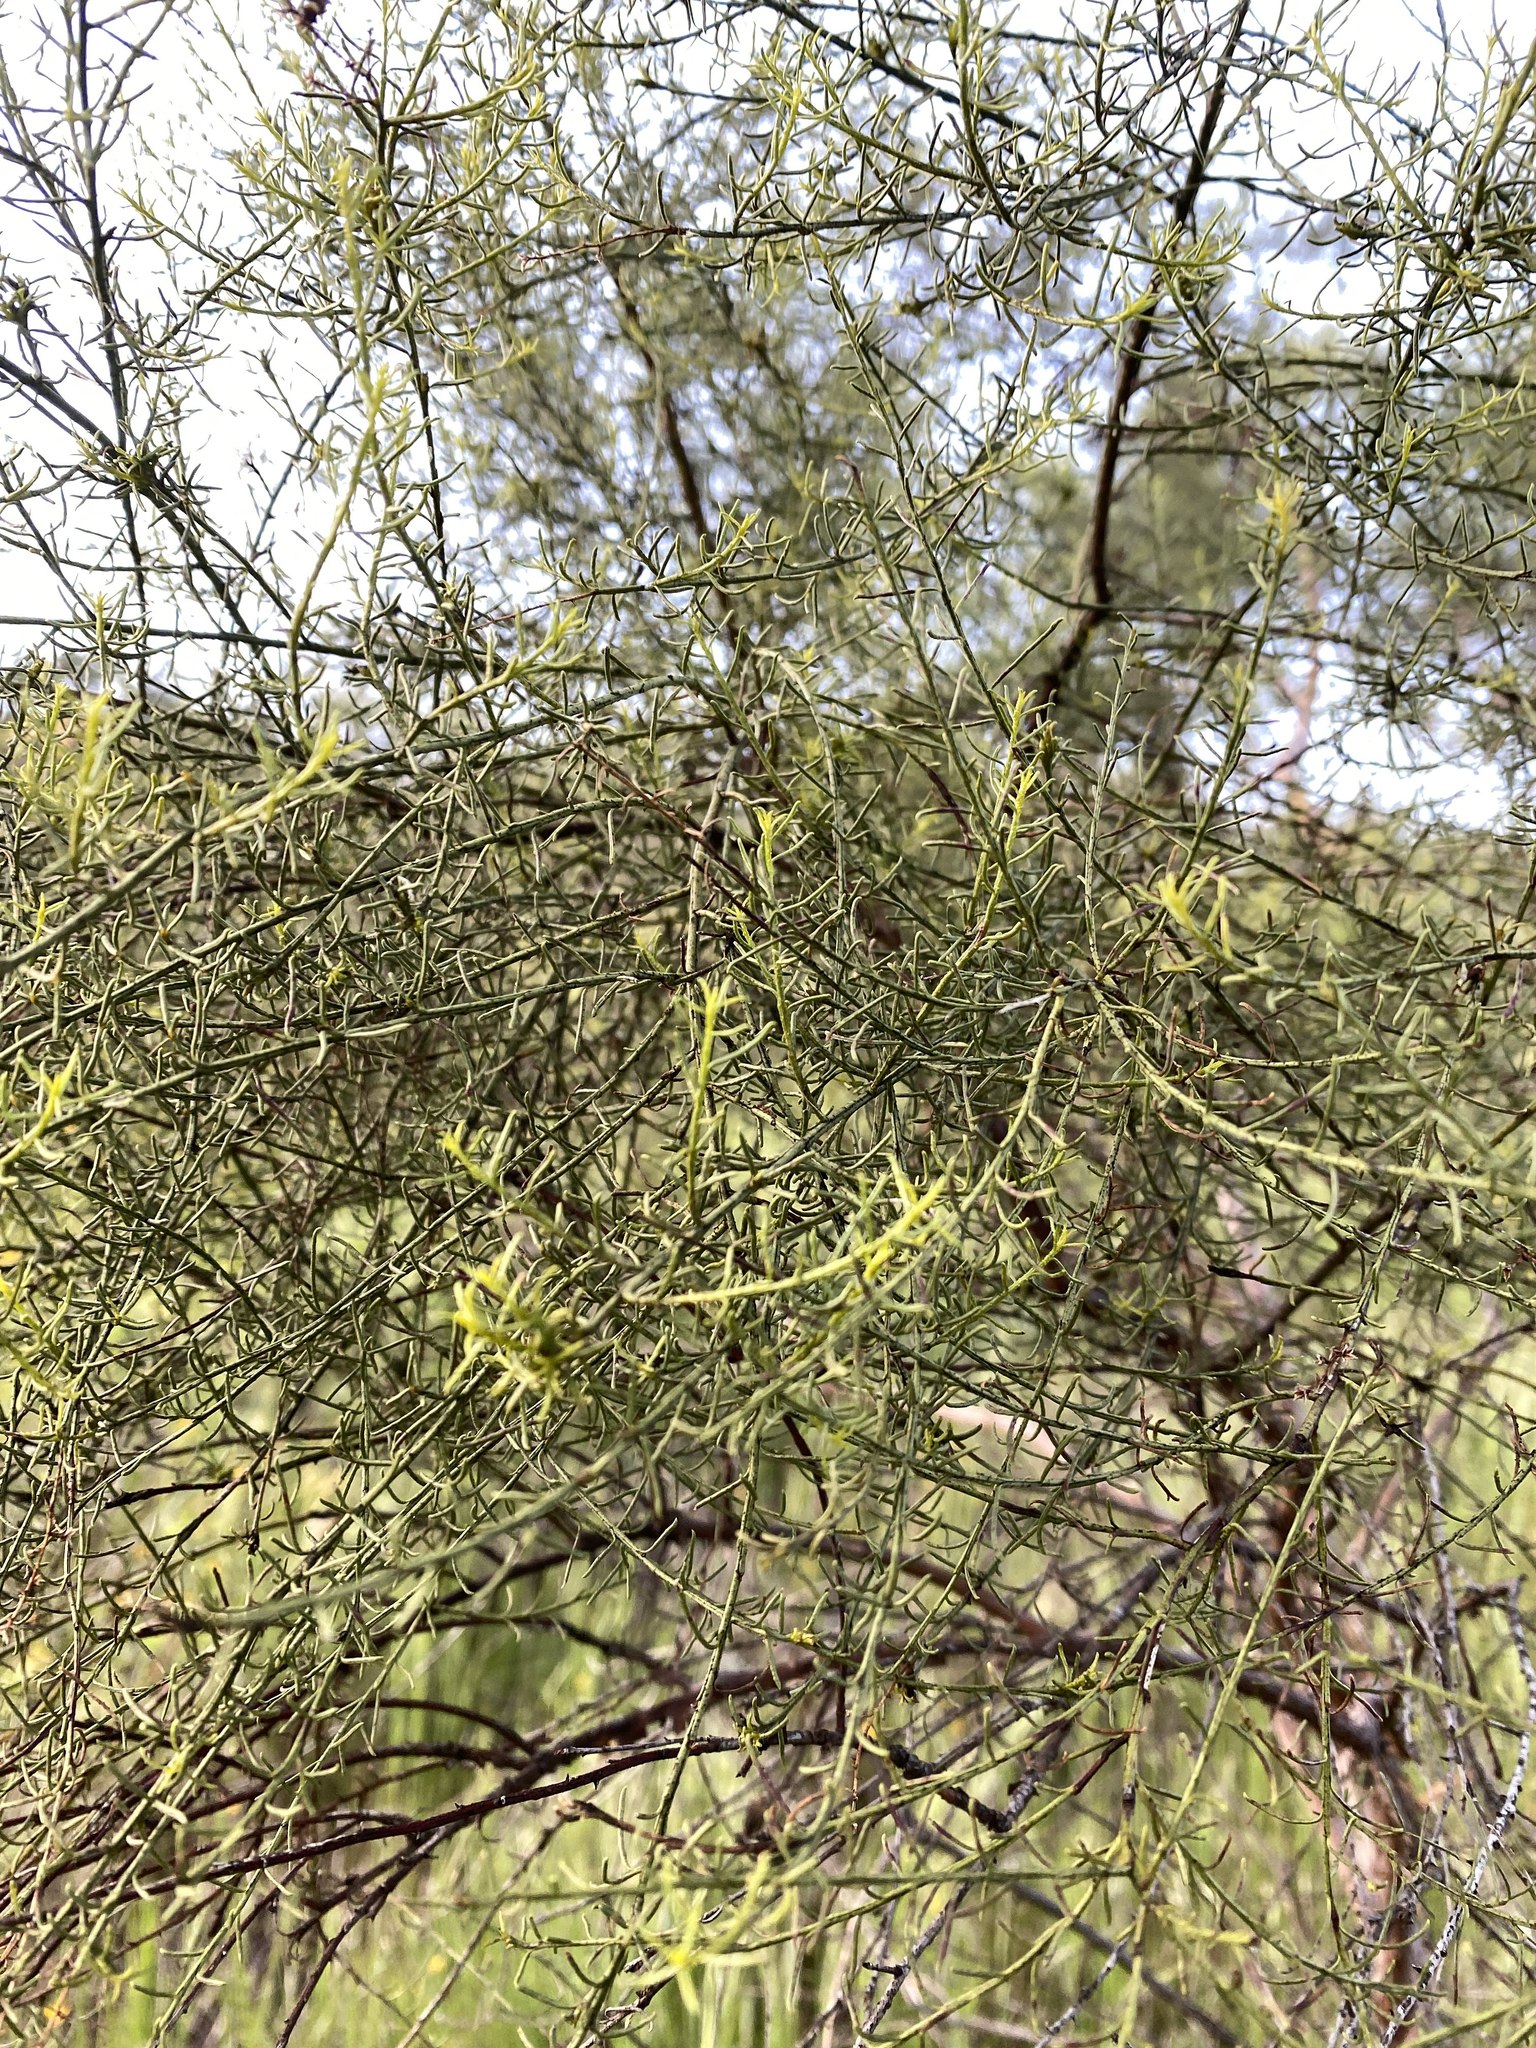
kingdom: Plantae
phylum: Tracheophyta
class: Magnoliopsida
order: Rosales
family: Rosaceae
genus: Adenostoma
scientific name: Adenostoma sparsifolium
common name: Red shank
